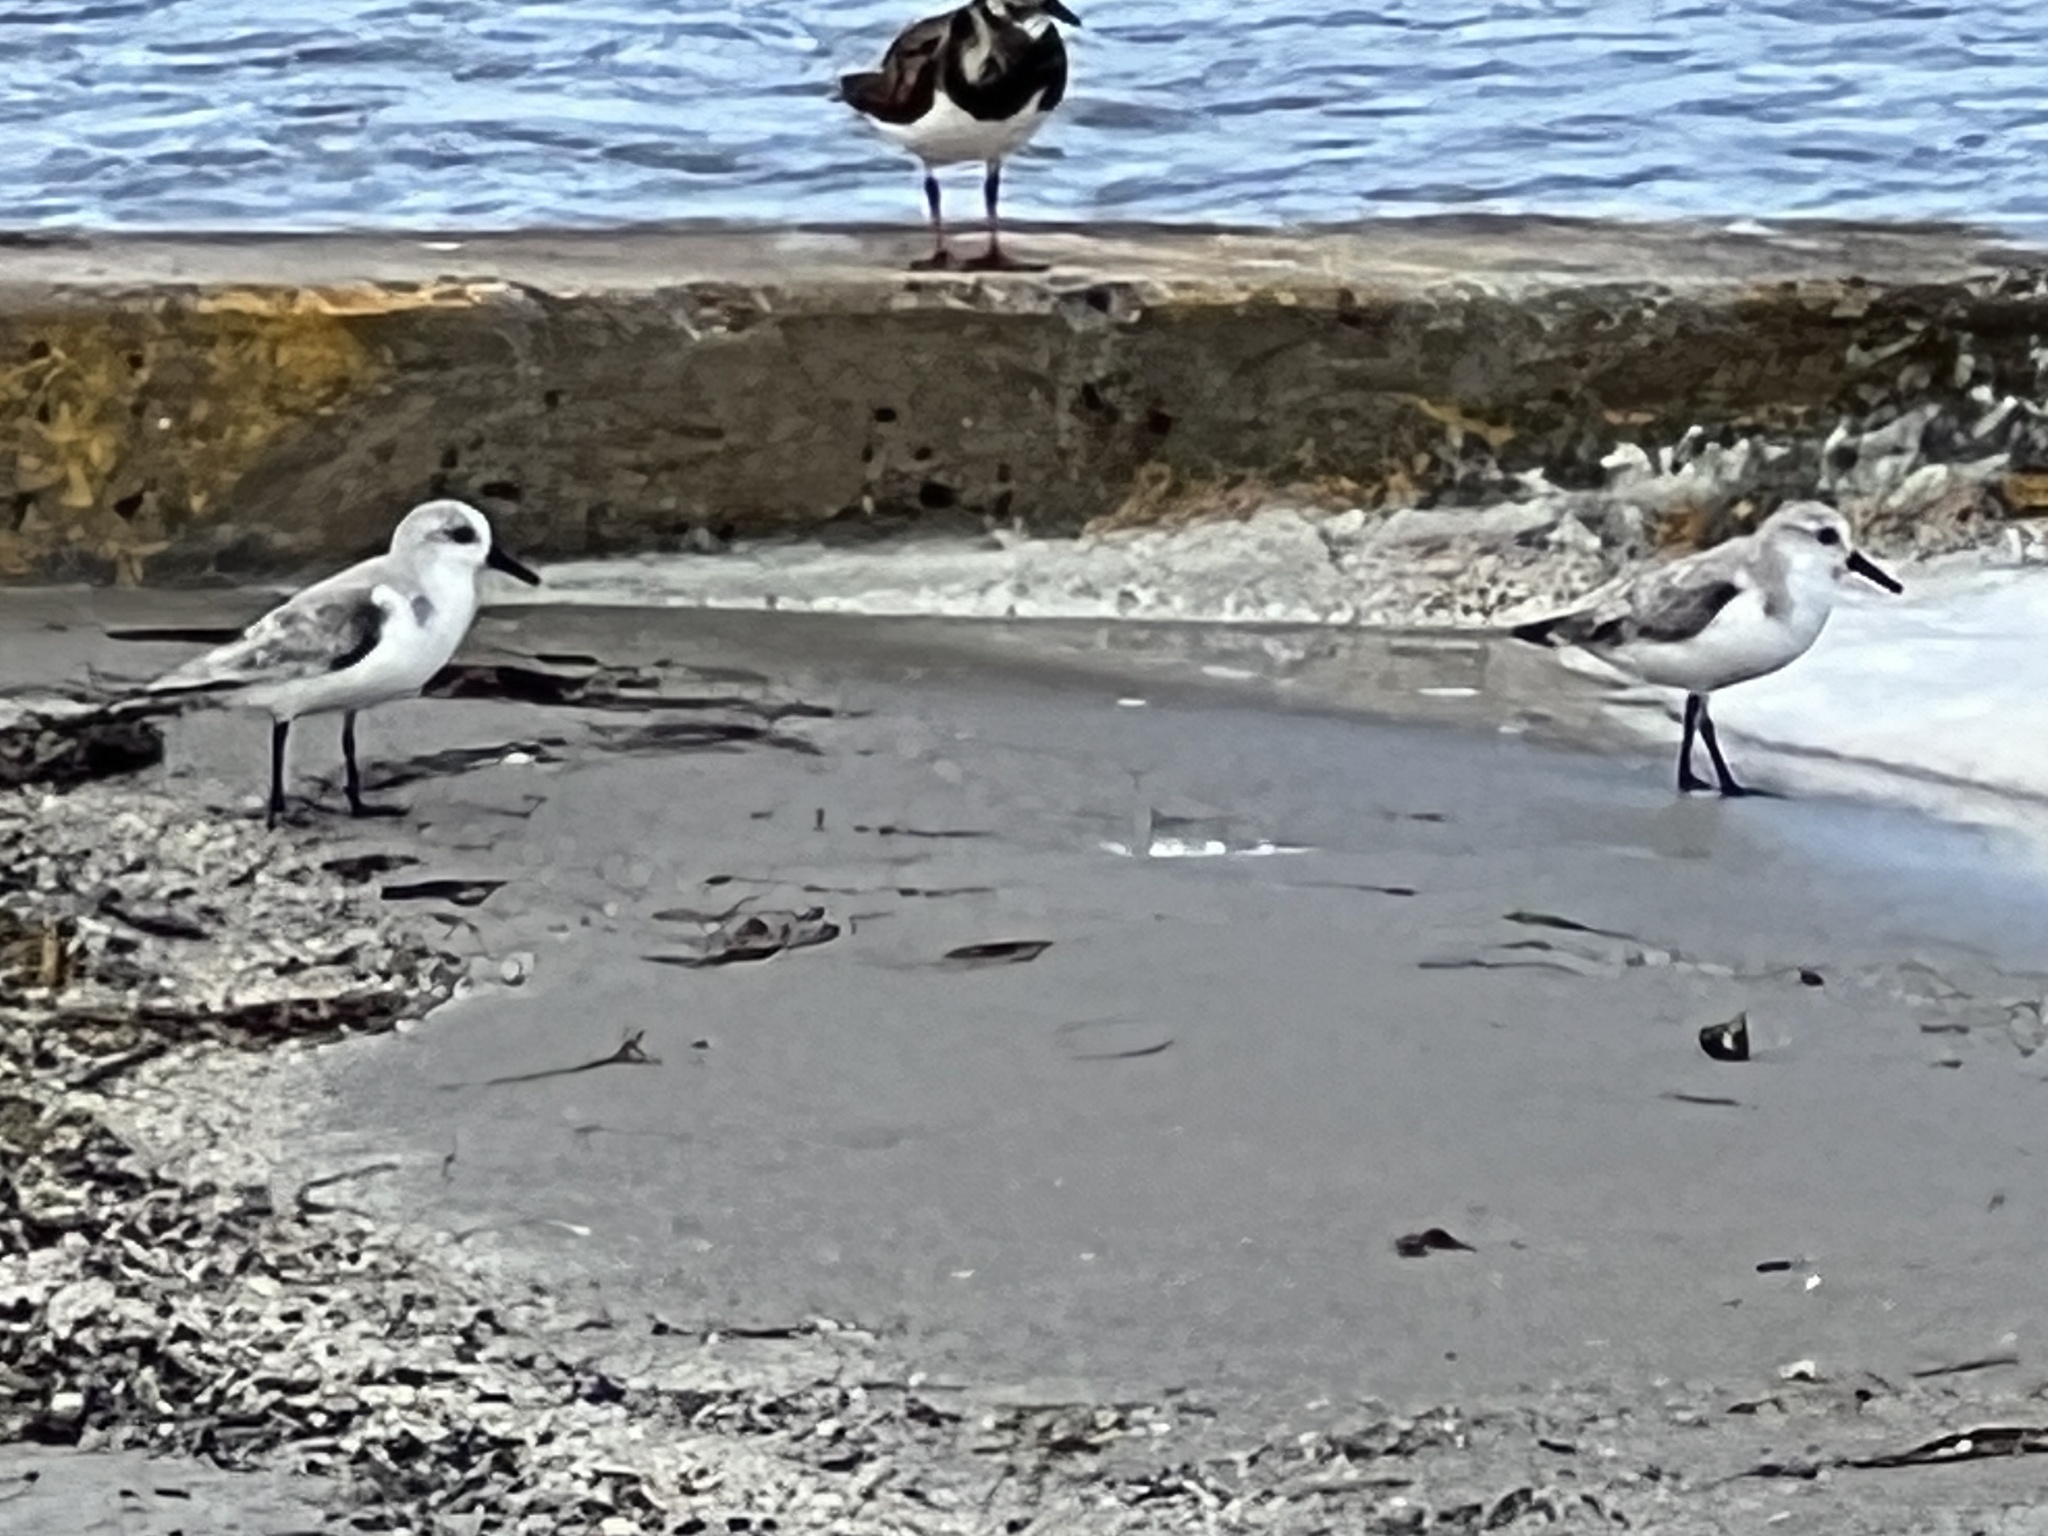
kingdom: Animalia
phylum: Chordata
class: Aves
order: Charadriiformes
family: Scolopacidae
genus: Calidris
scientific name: Calidris alba
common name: Sanderling
